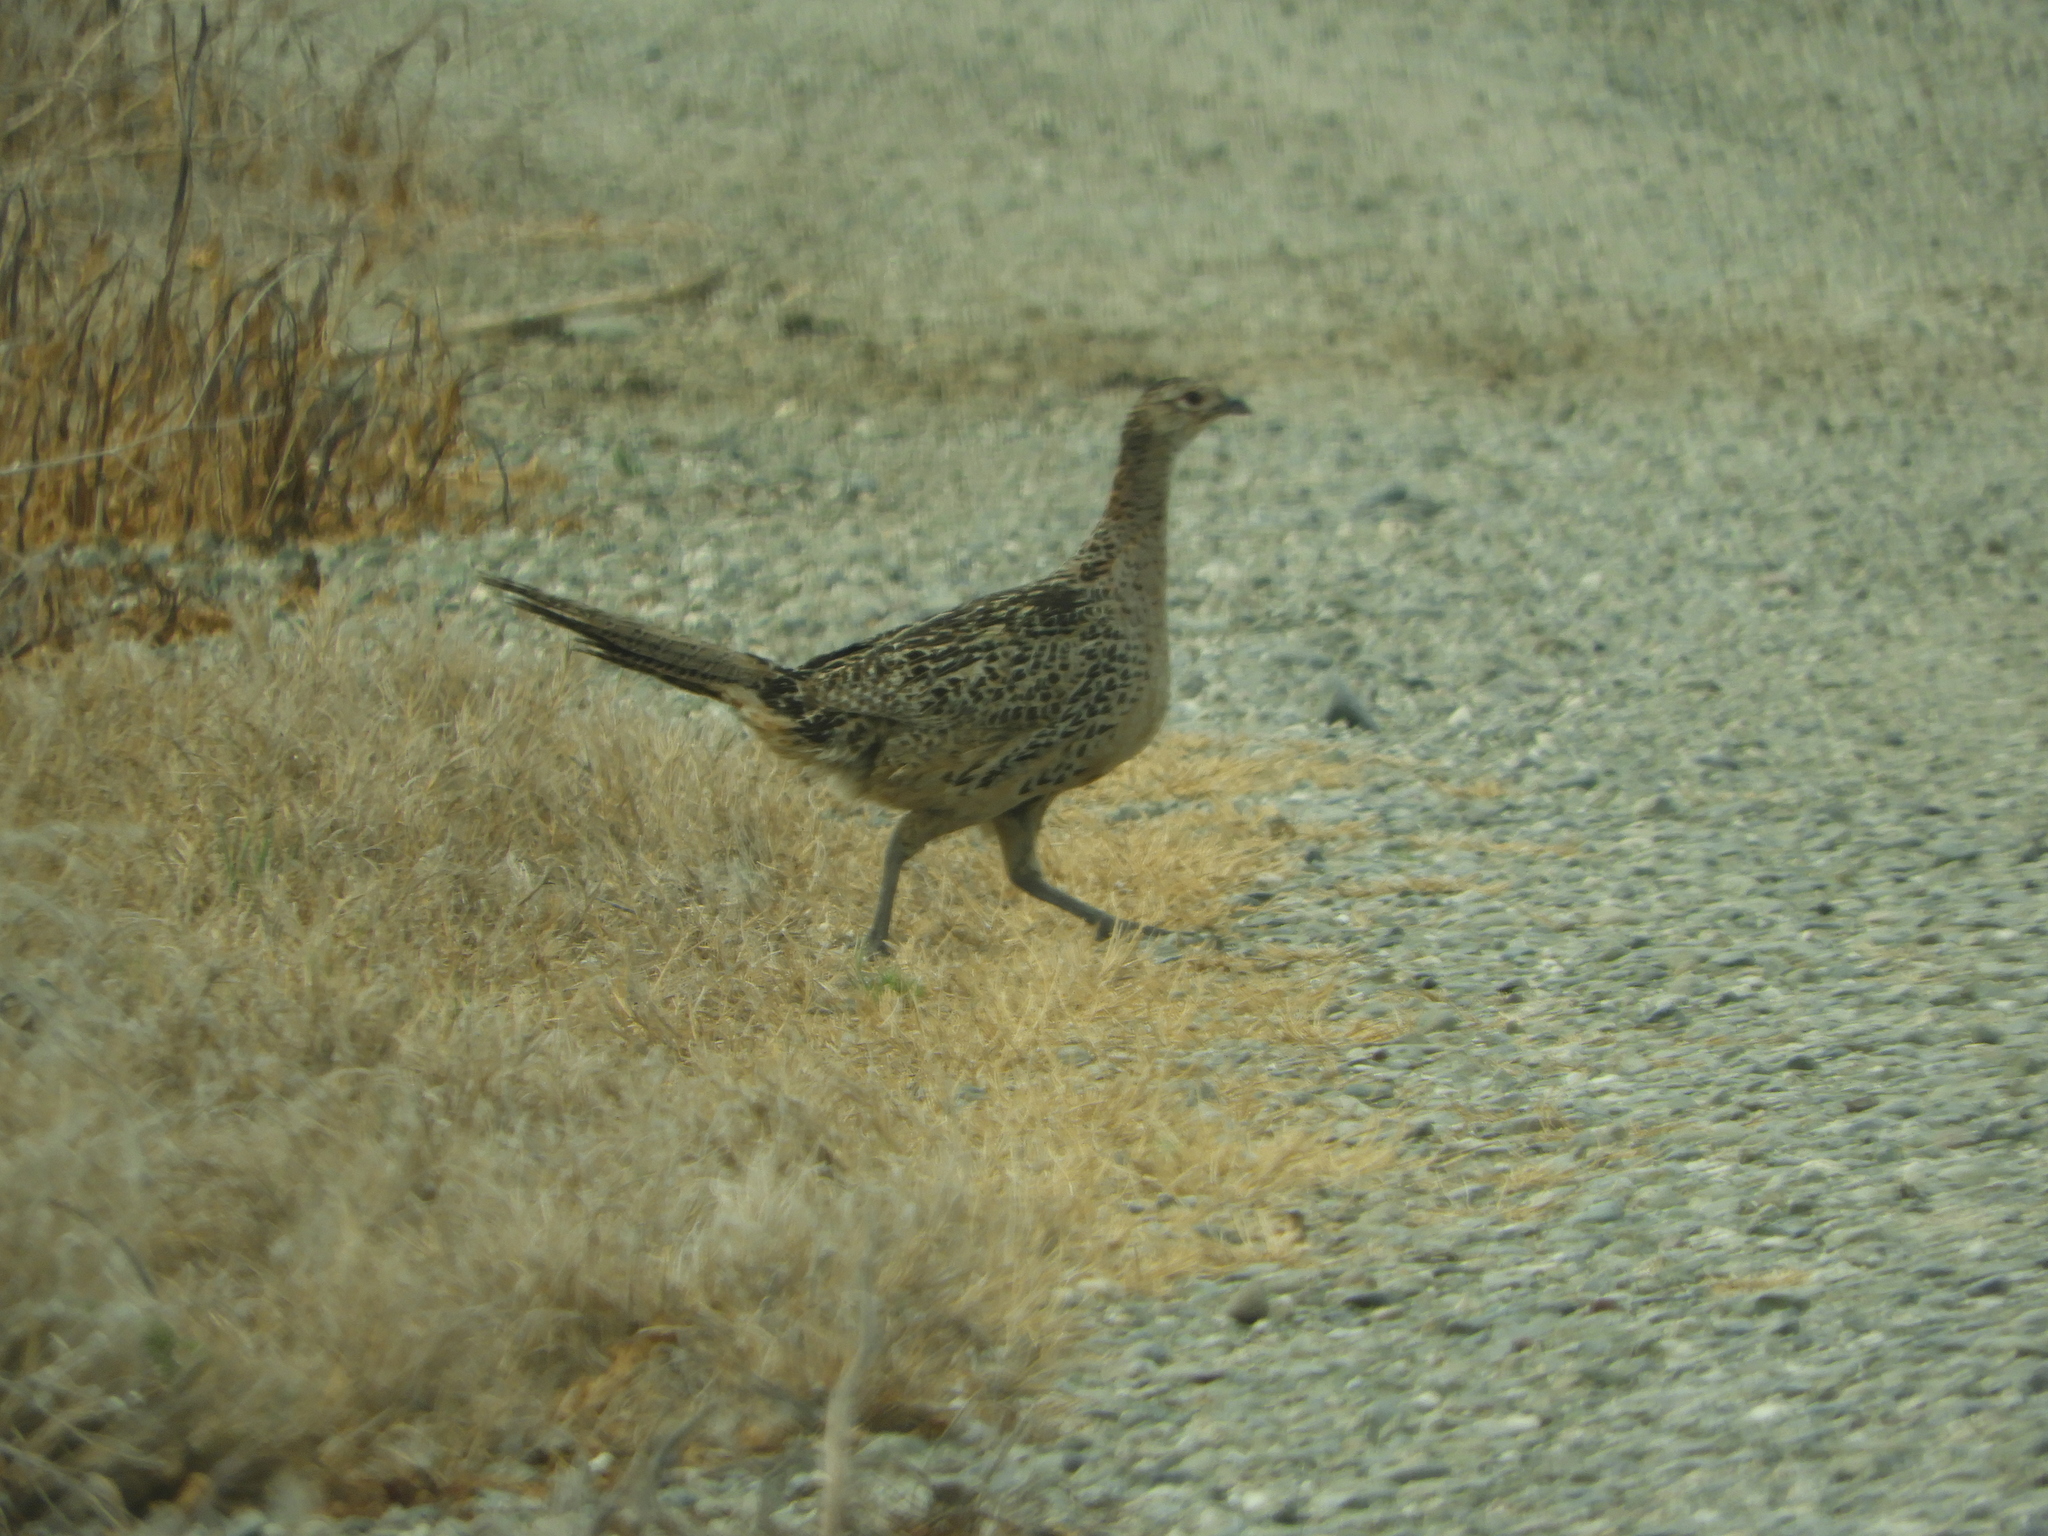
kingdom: Animalia
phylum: Chordata
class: Aves
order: Galliformes
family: Phasianidae
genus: Phasianus
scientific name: Phasianus colchicus
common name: Common pheasant
